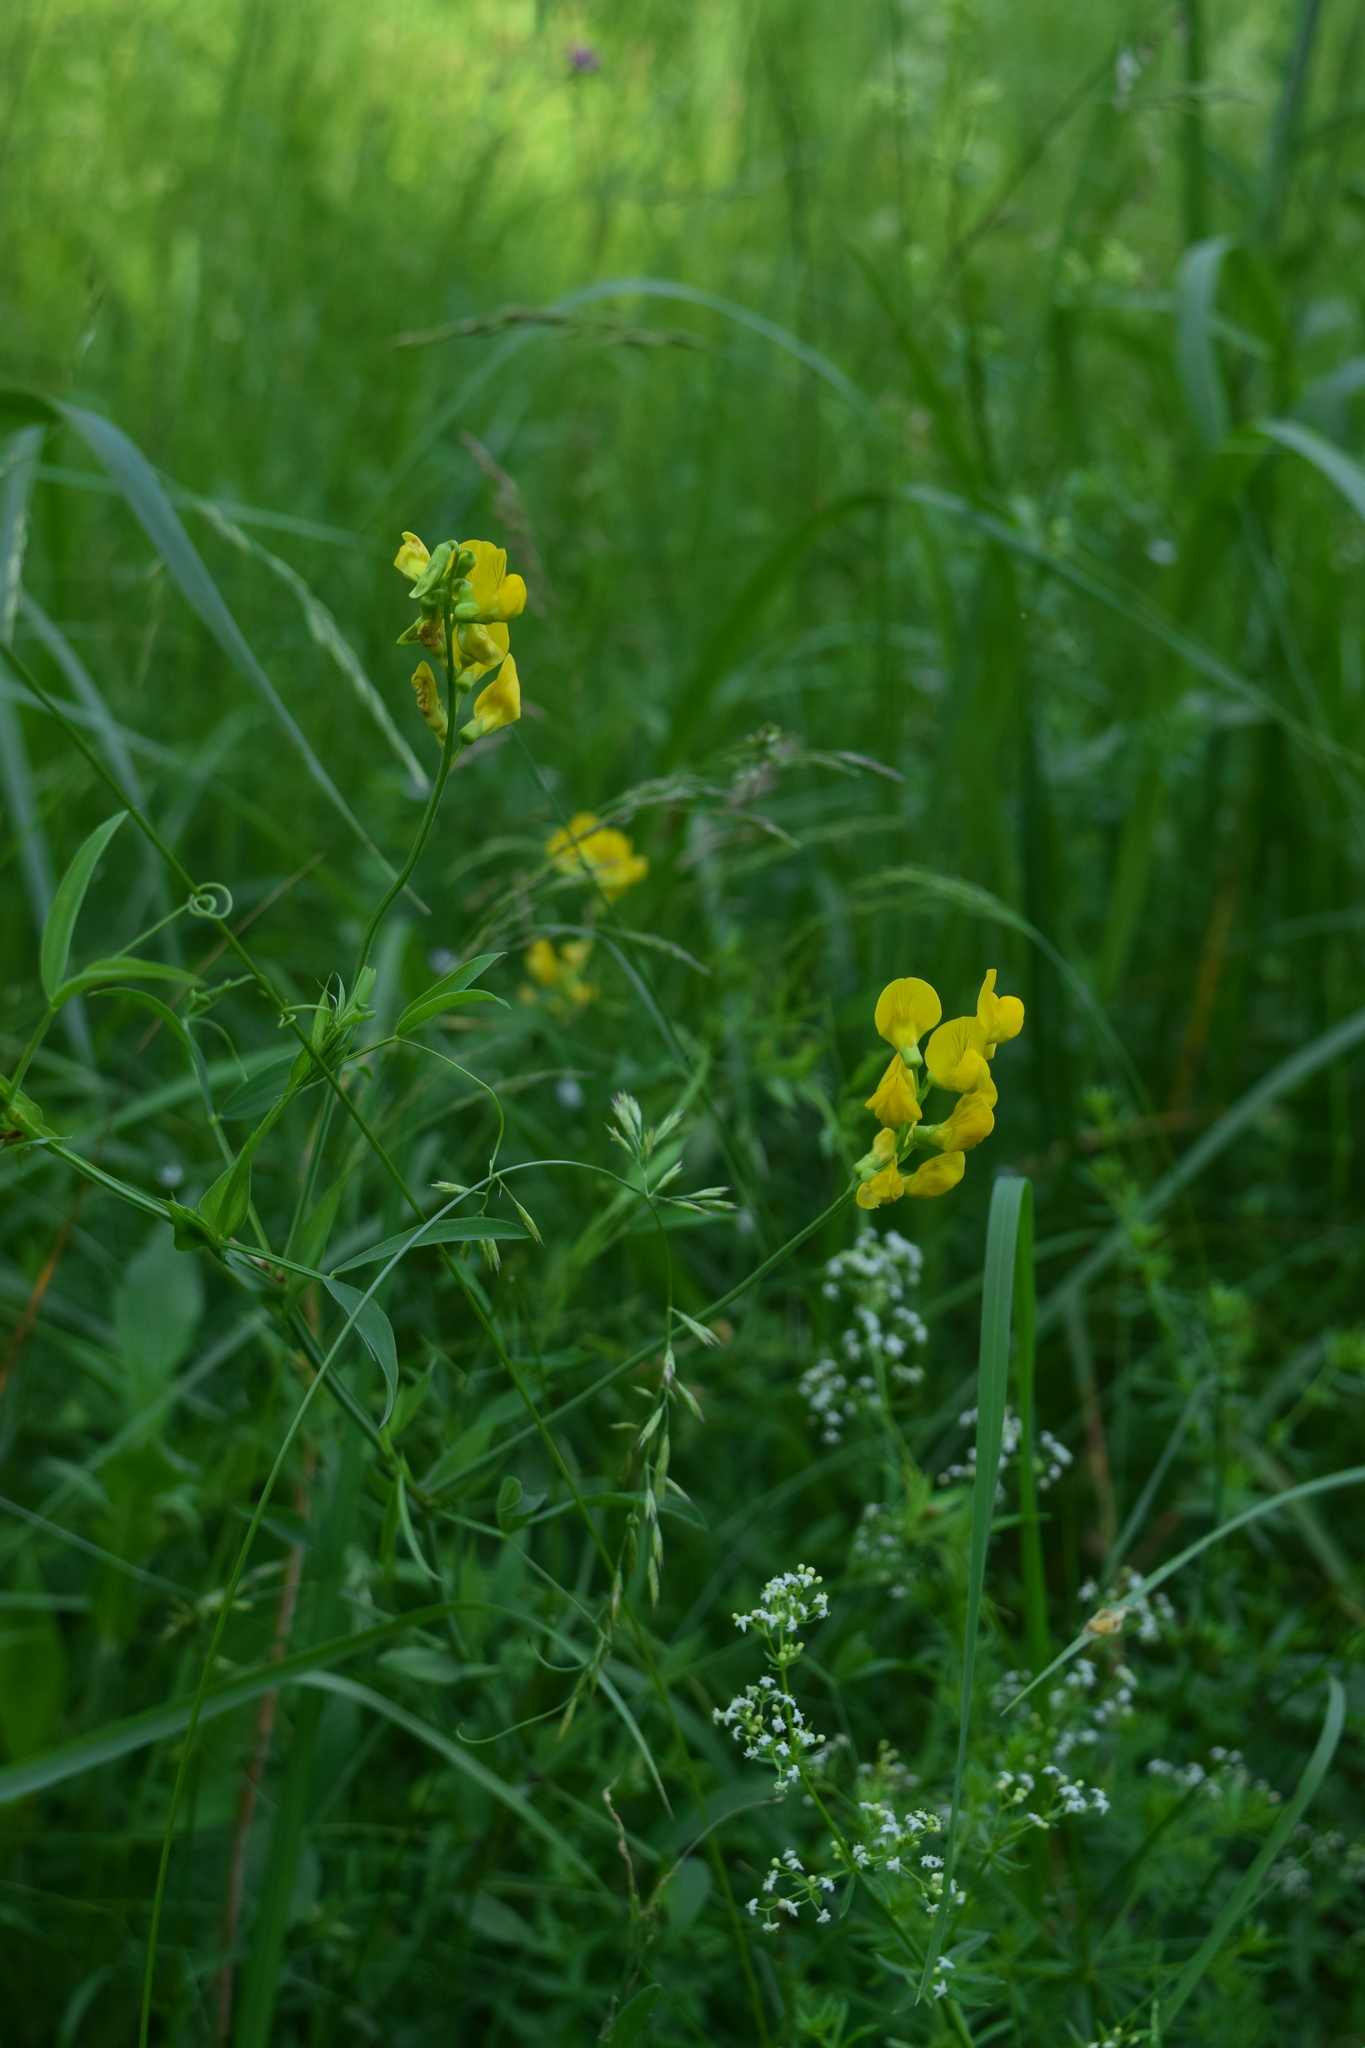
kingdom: Plantae
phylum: Tracheophyta
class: Magnoliopsida
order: Fabales
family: Fabaceae
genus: Lathyrus
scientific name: Lathyrus pratensis
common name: Meadow vetchling
